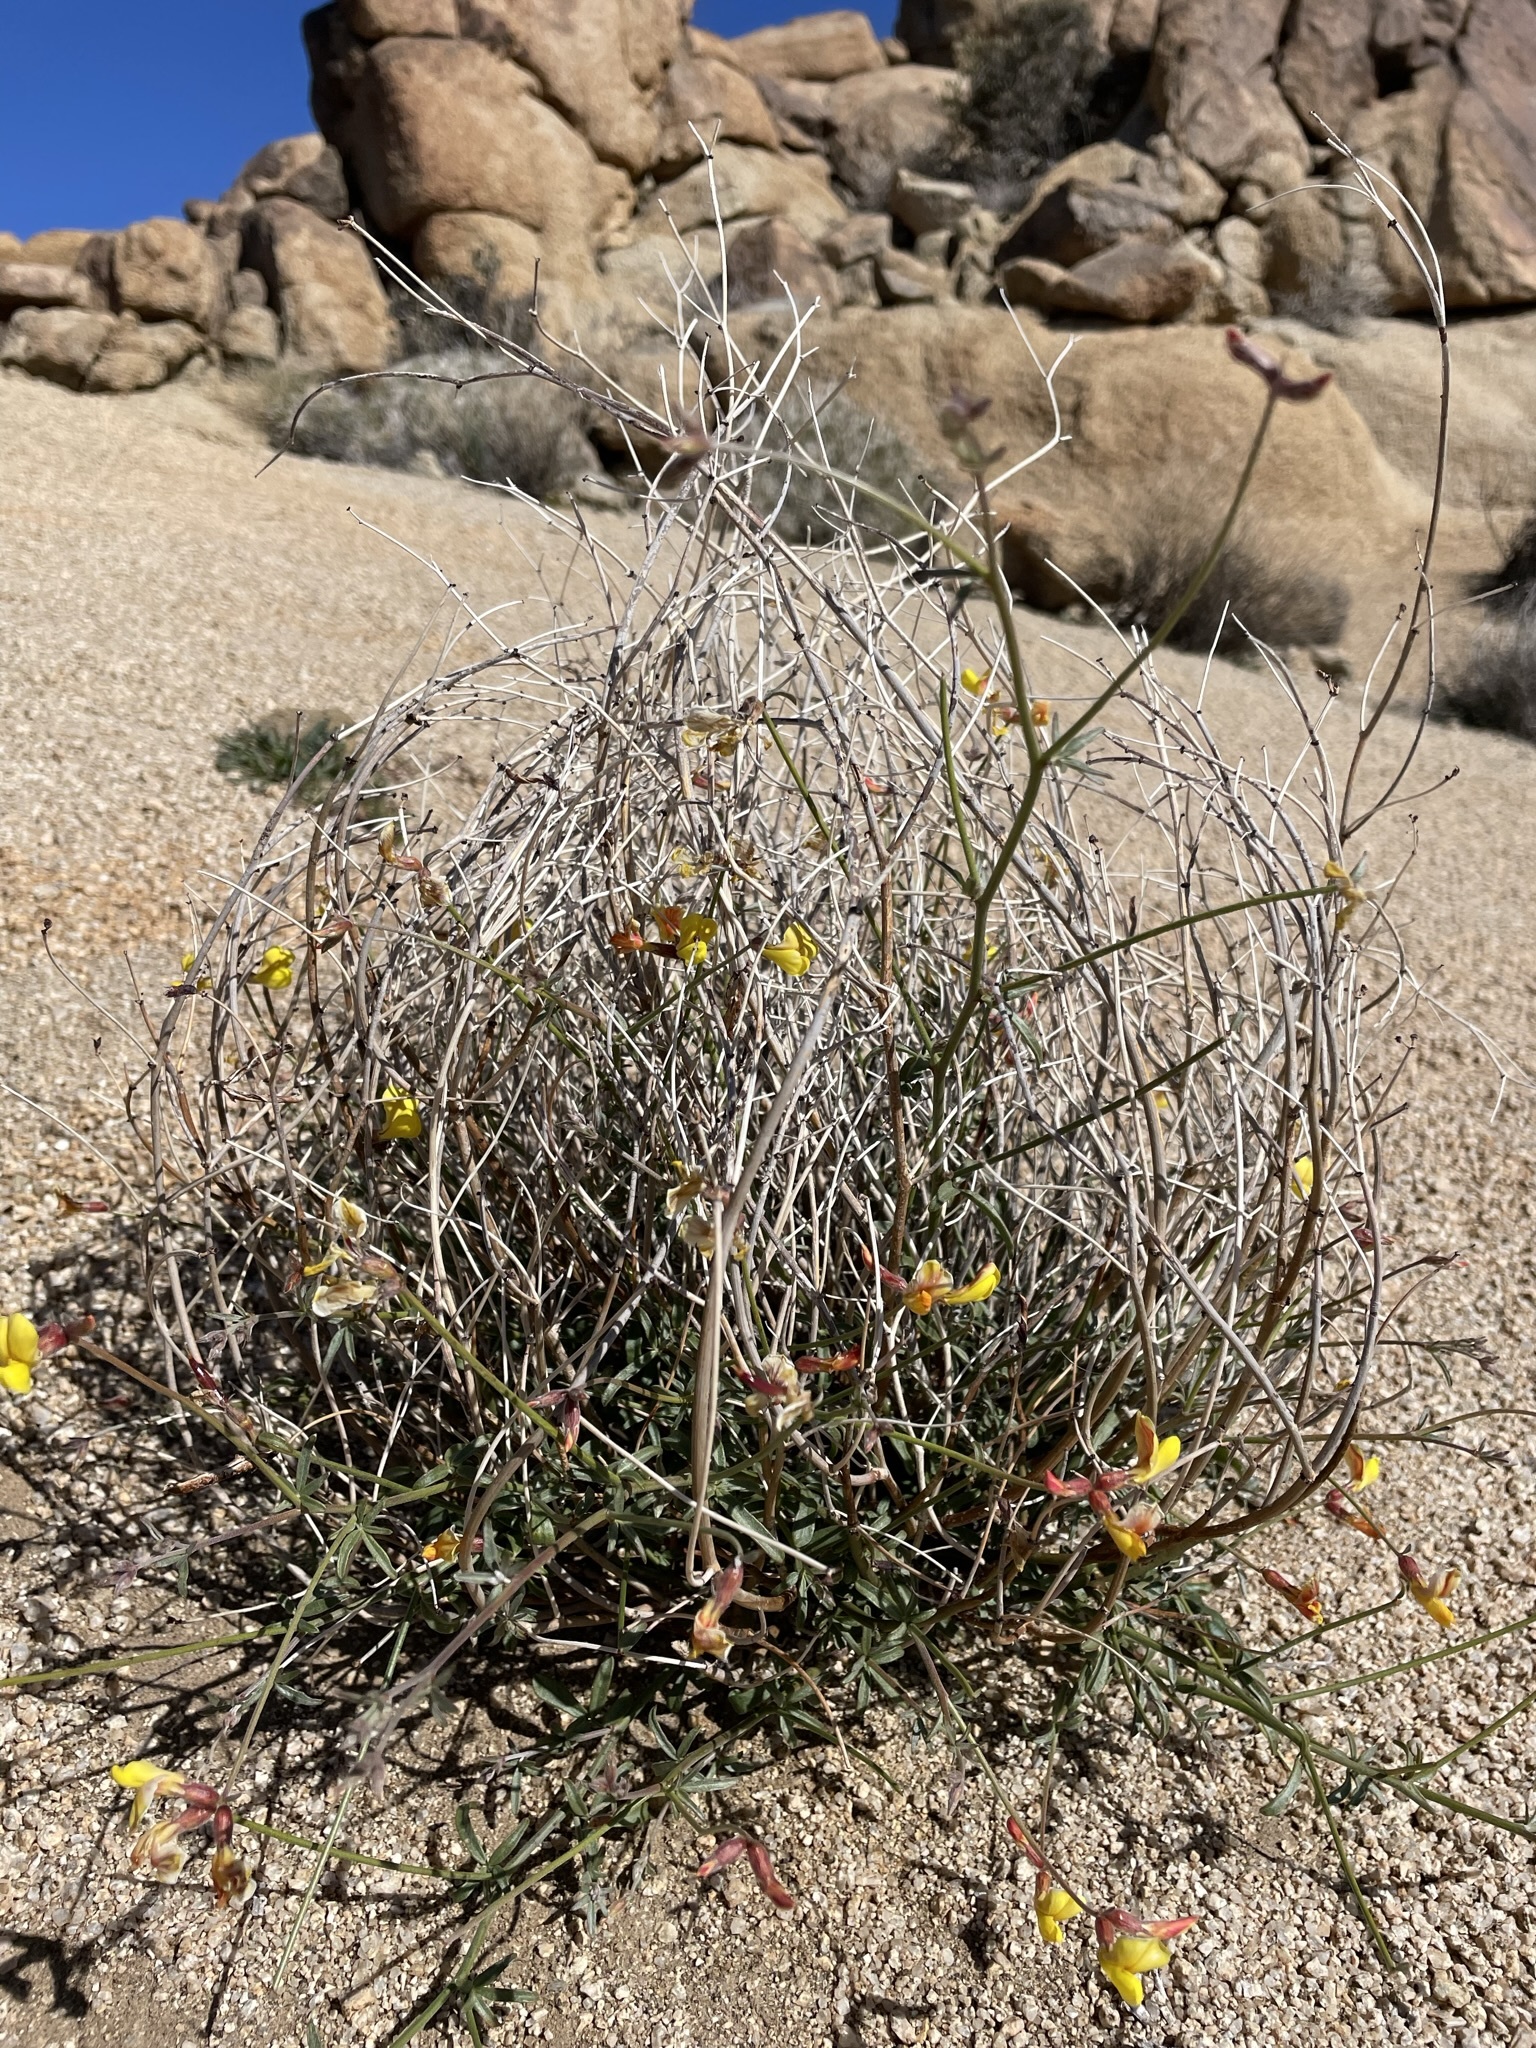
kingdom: Plantae
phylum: Tracheophyta
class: Magnoliopsida
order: Fabales
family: Fabaceae
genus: Acmispon
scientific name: Acmispon rigidus
